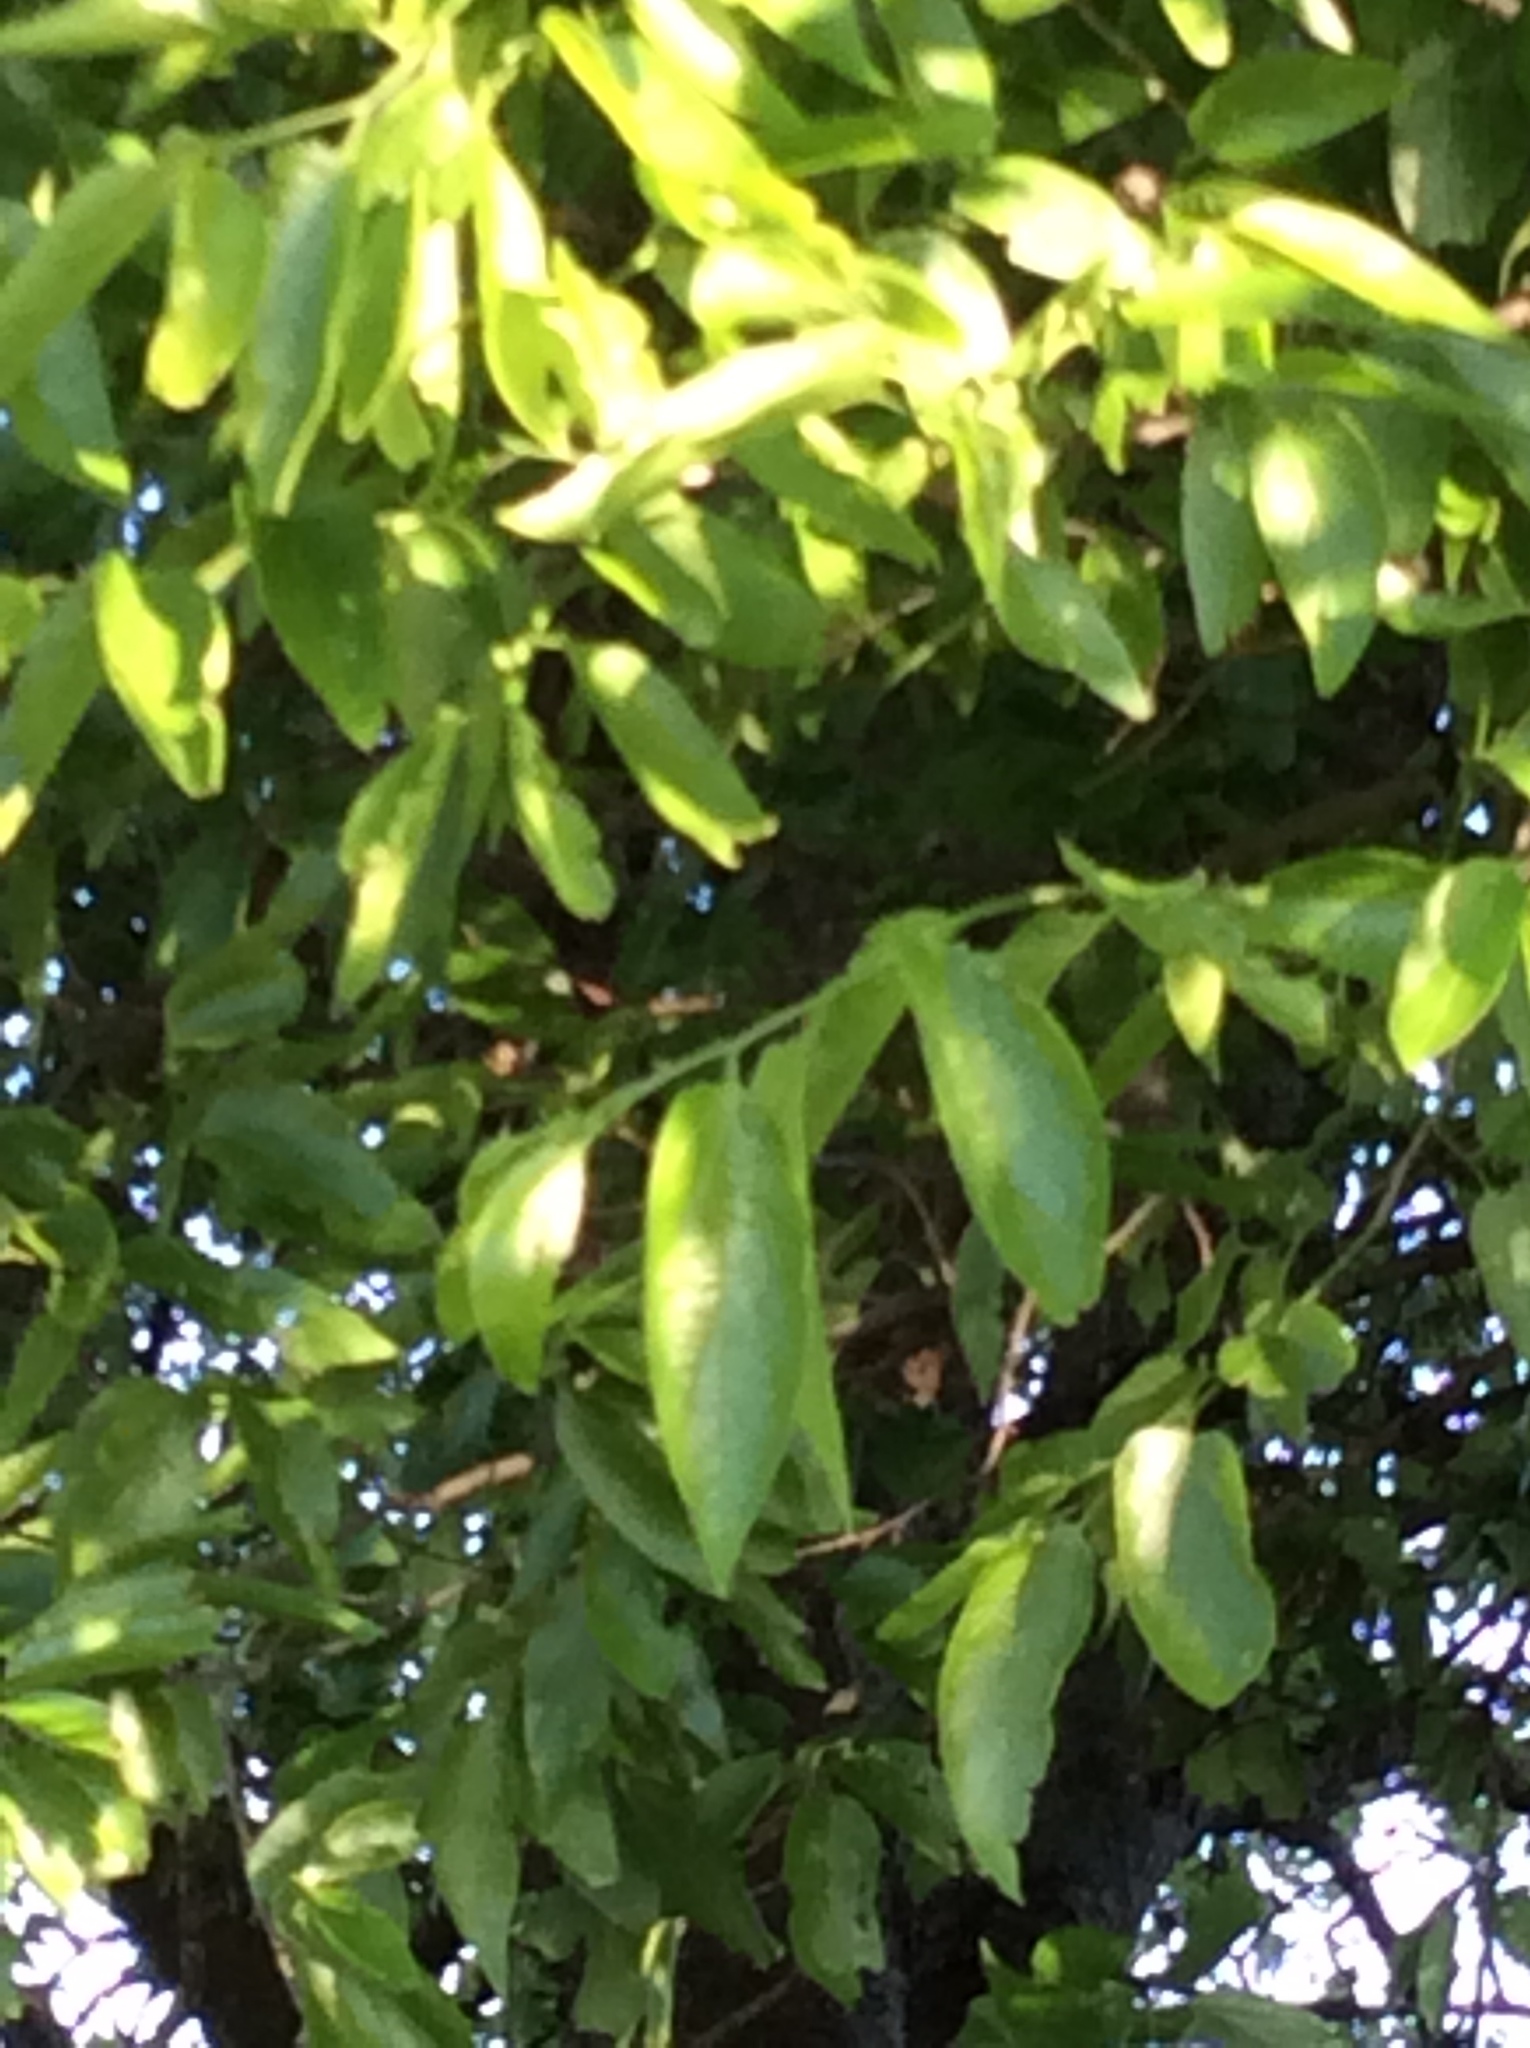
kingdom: Plantae
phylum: Tracheophyta
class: Magnoliopsida
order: Rosales
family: Cannabaceae
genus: Celtis
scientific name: Celtis laevigata
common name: Sugarberry
